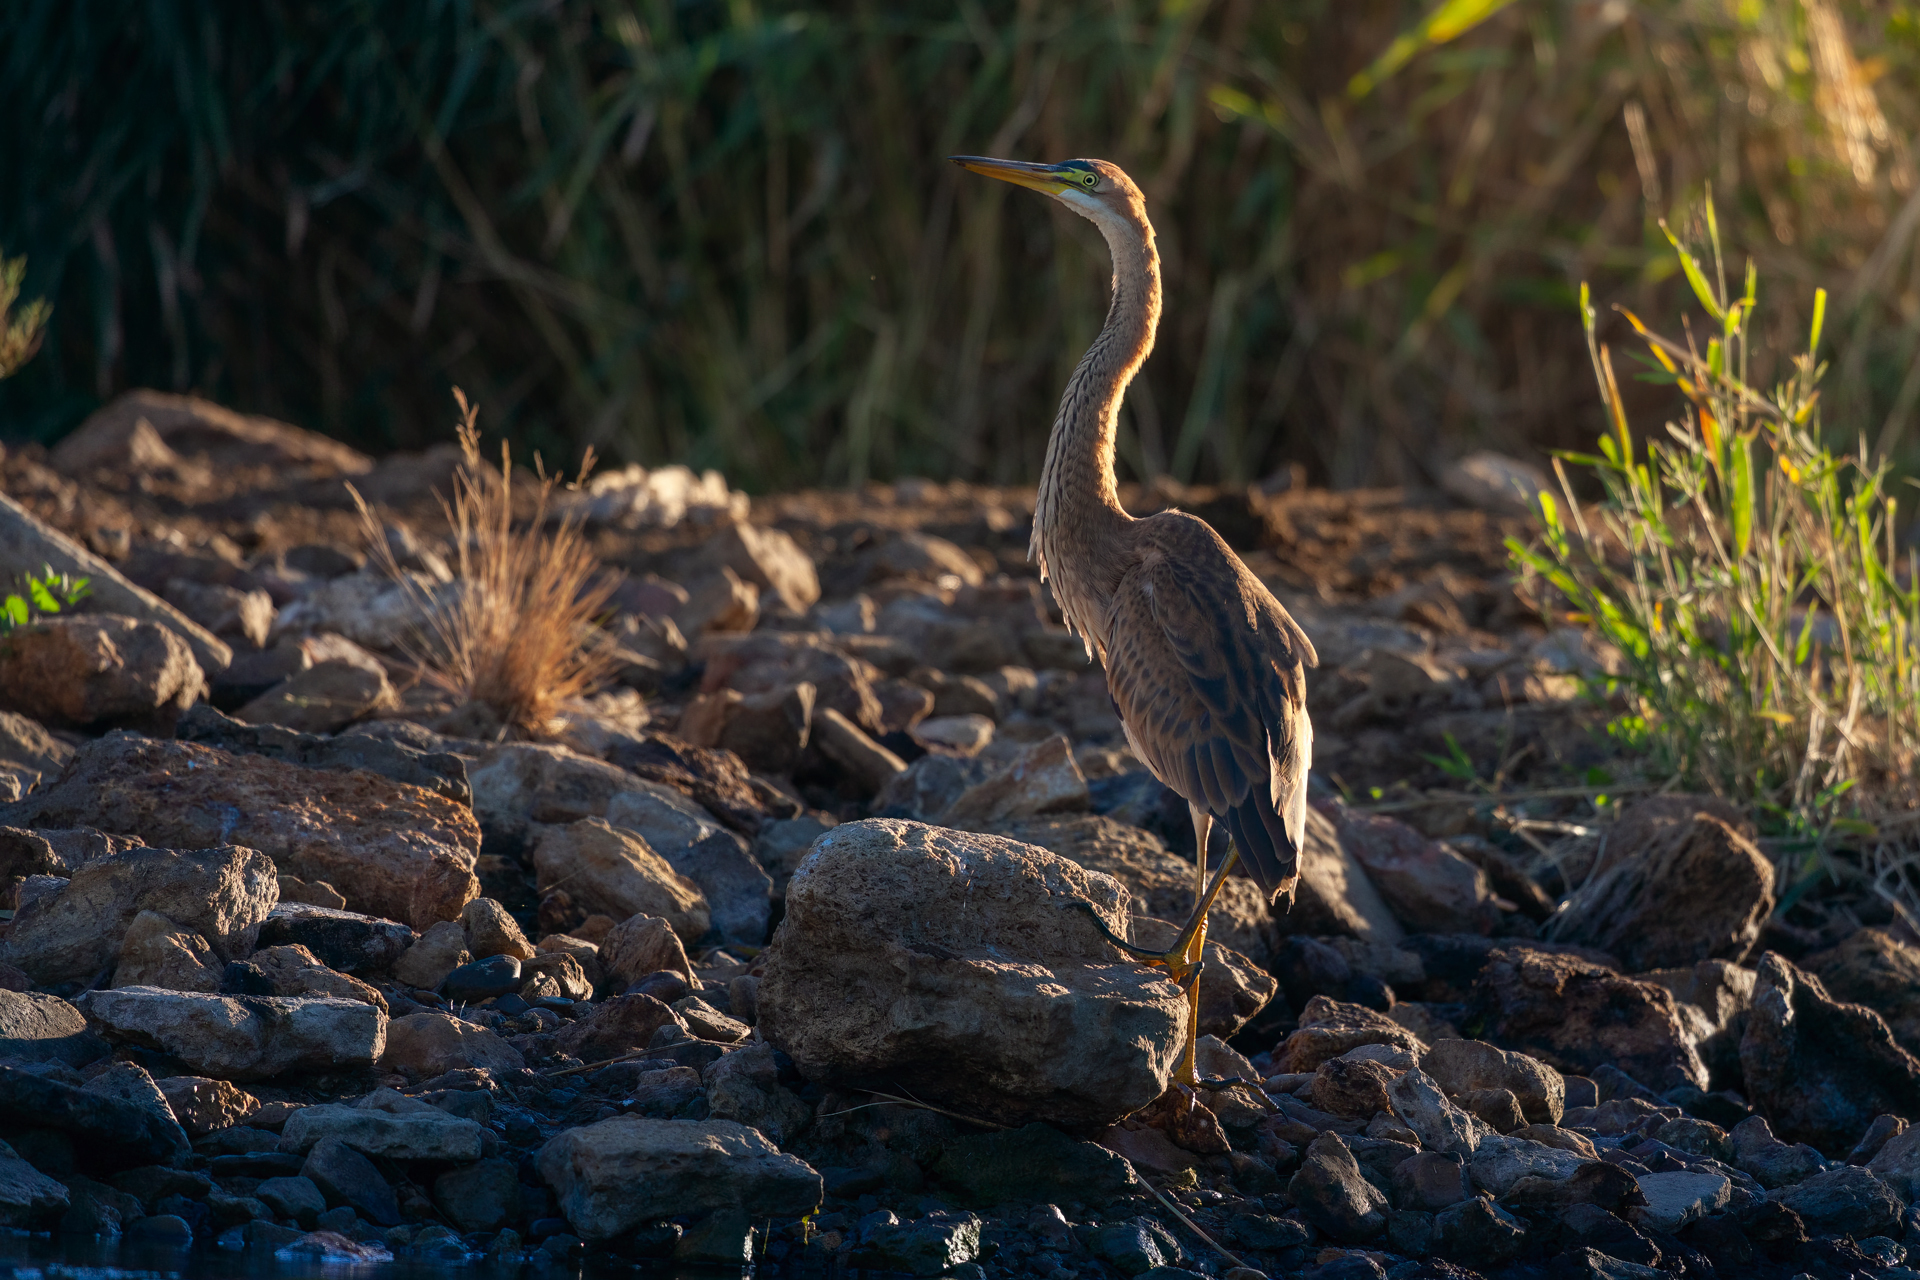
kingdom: Animalia
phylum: Chordata
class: Aves
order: Pelecaniformes
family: Ardeidae
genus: Ardea
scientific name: Ardea purpurea
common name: Purple heron
